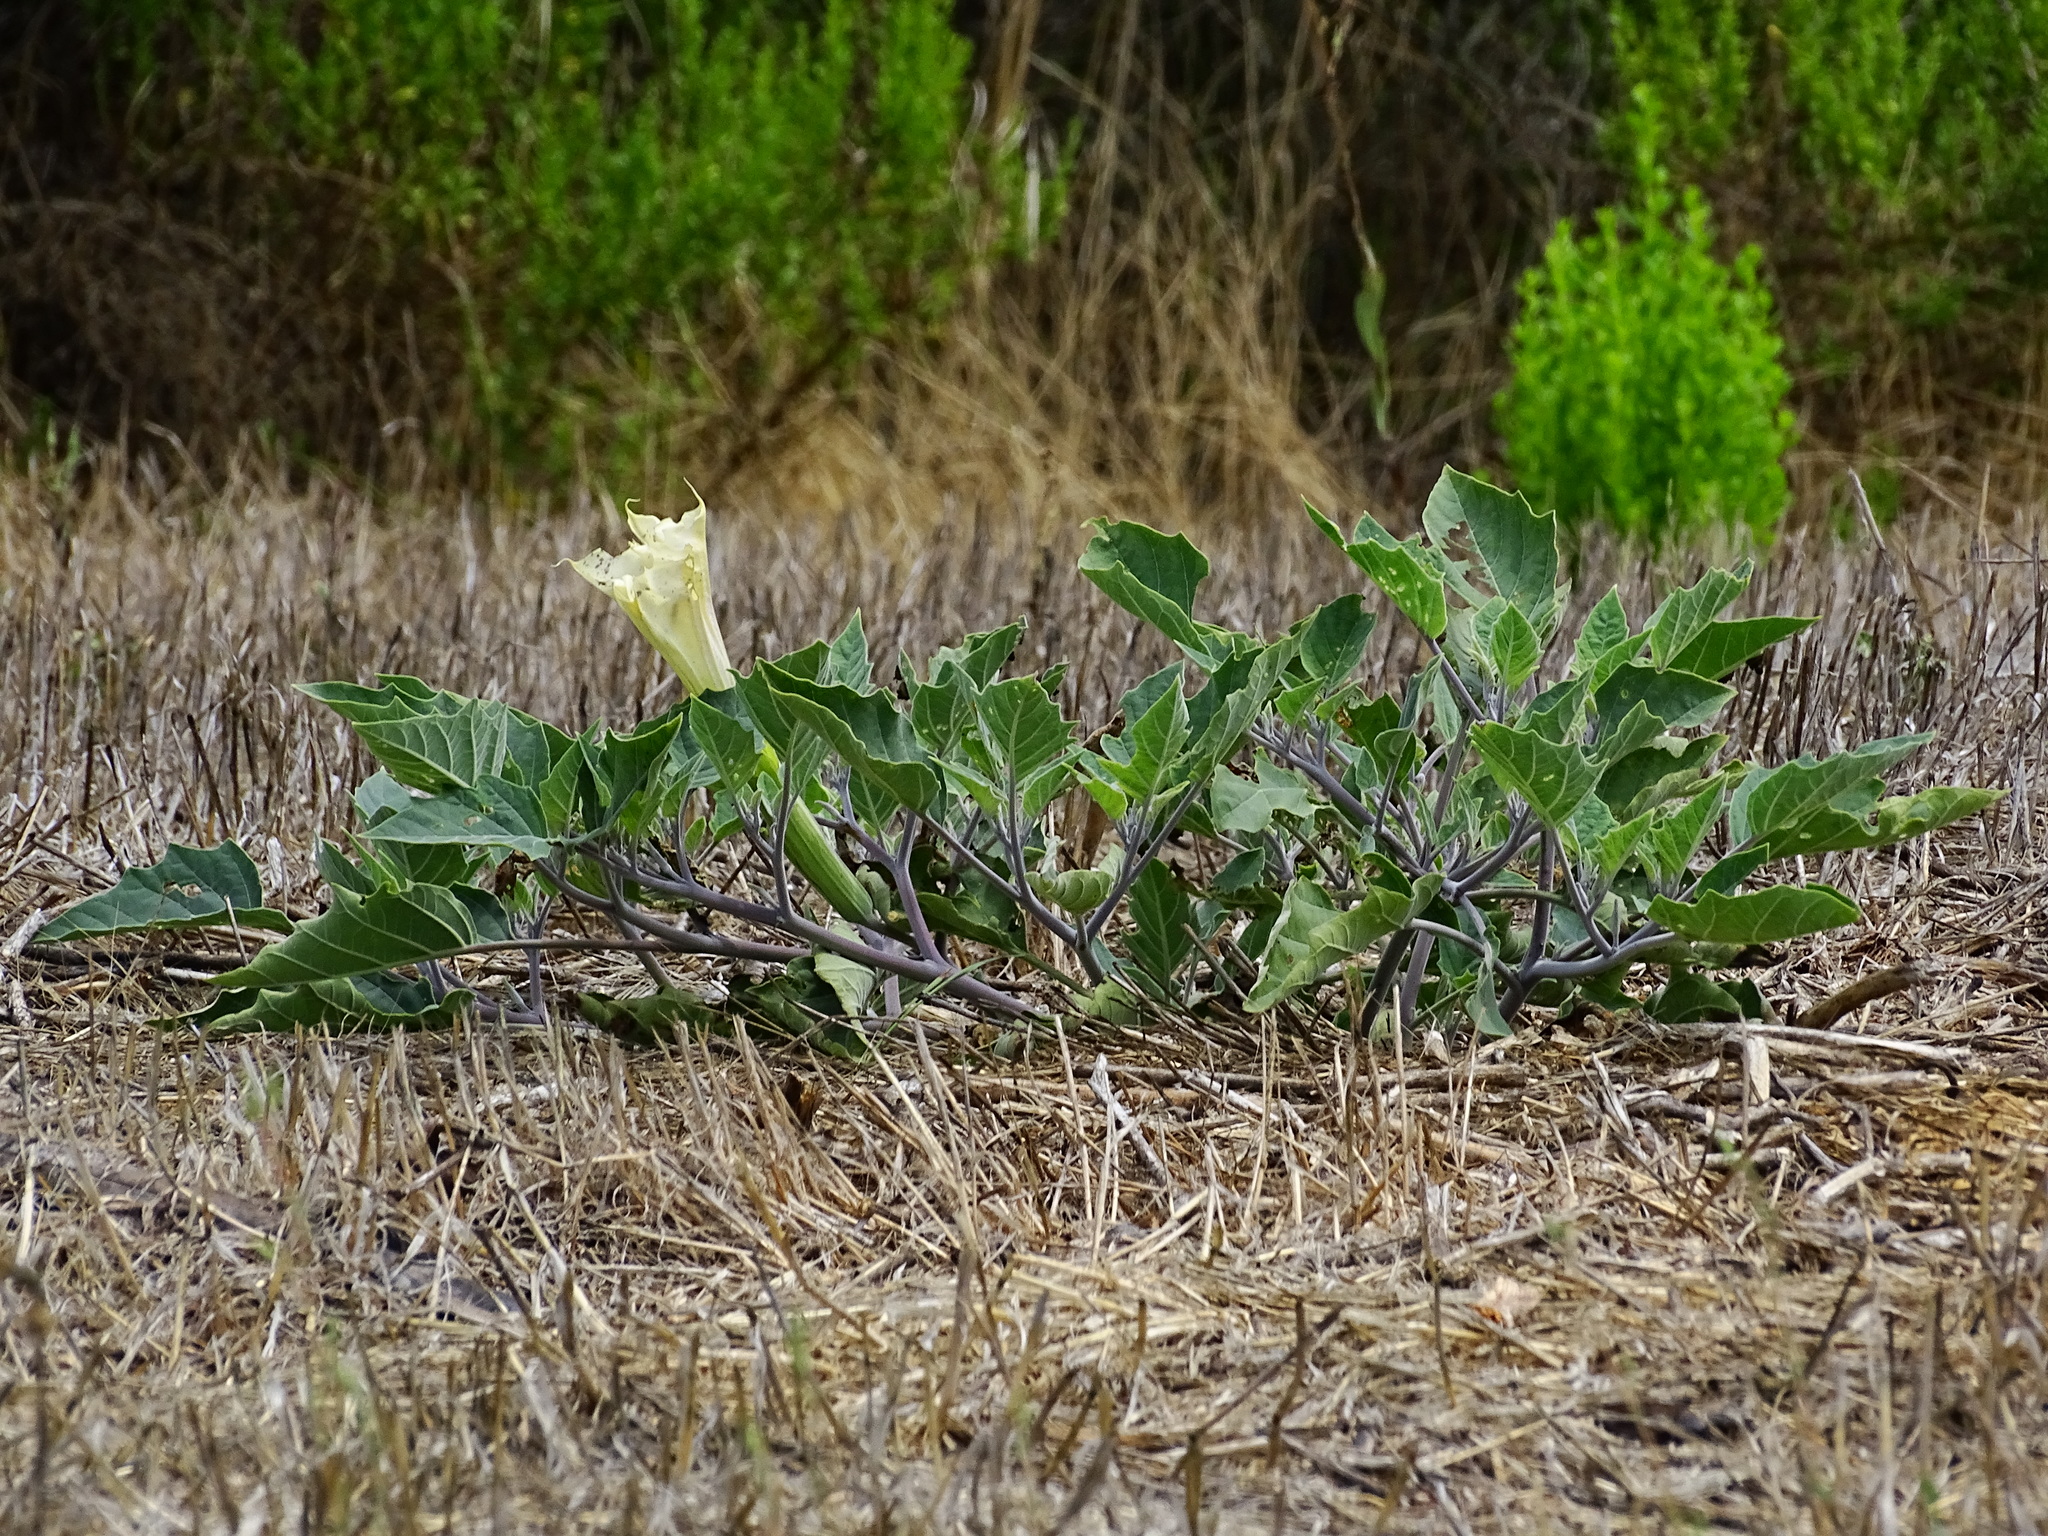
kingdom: Plantae
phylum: Tracheophyta
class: Magnoliopsida
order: Solanales
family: Solanaceae
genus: Datura
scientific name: Datura wrightii
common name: Sacred thorn-apple
